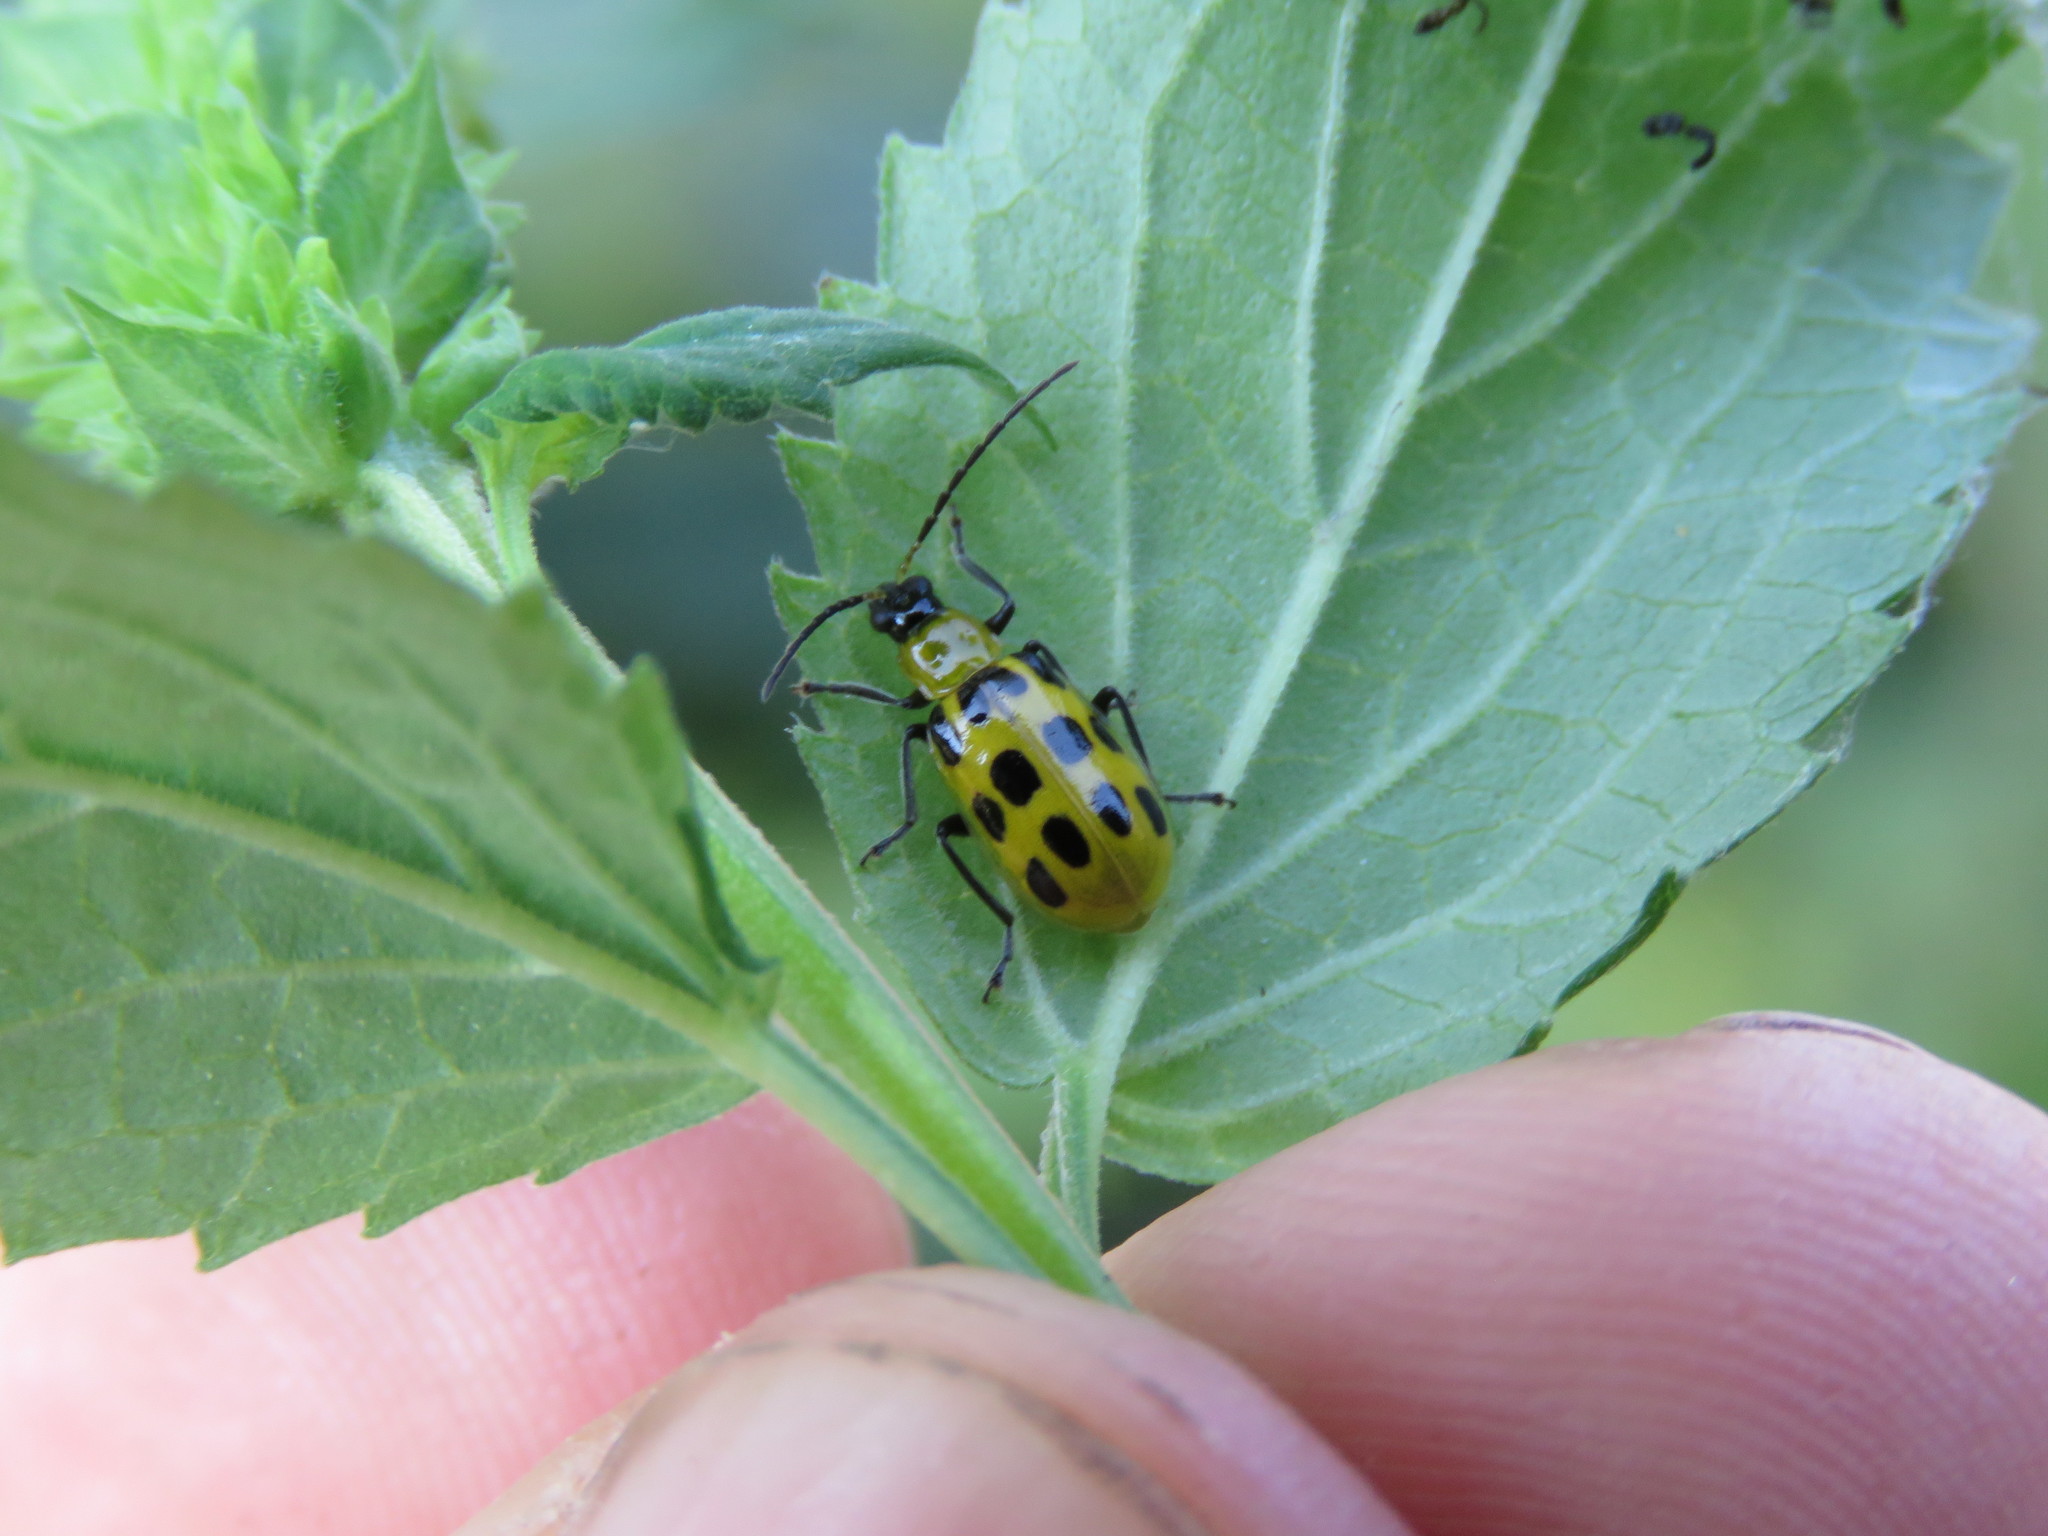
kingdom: Animalia
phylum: Arthropoda
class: Insecta
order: Coleoptera
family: Chrysomelidae
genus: Diabrotica
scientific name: Diabrotica undecimpunctata
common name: Spotted cucumber beetle
